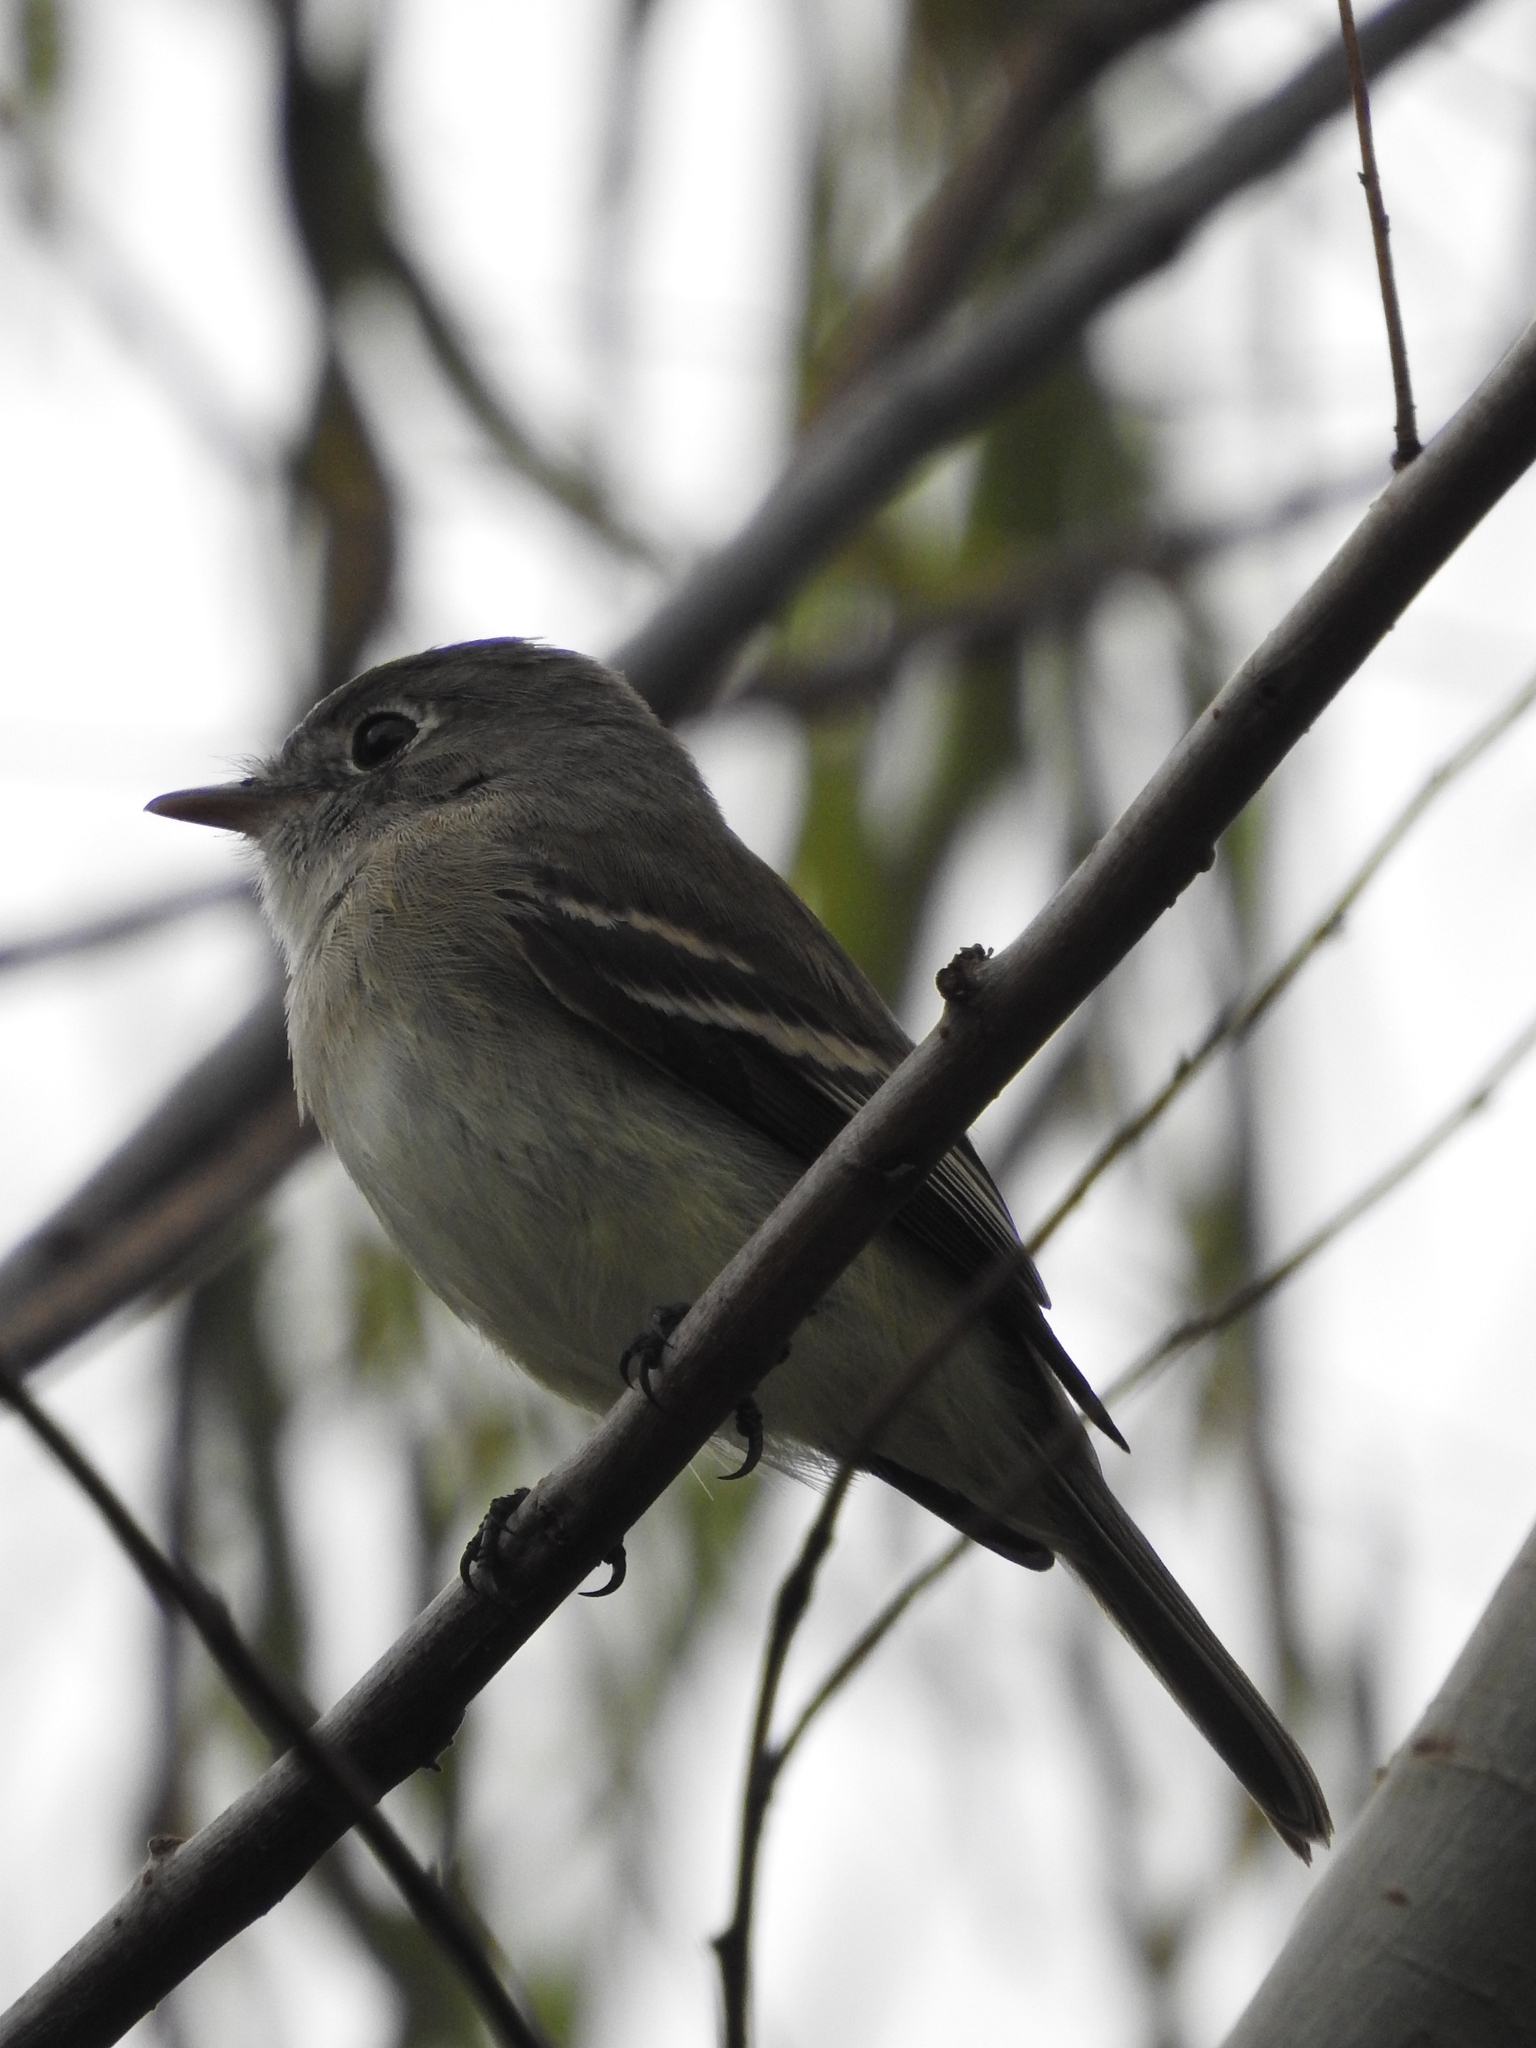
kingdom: Animalia
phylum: Chordata
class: Aves
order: Passeriformes
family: Tyrannidae
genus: Empidonax
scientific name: Empidonax minimus
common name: Least flycatcher
